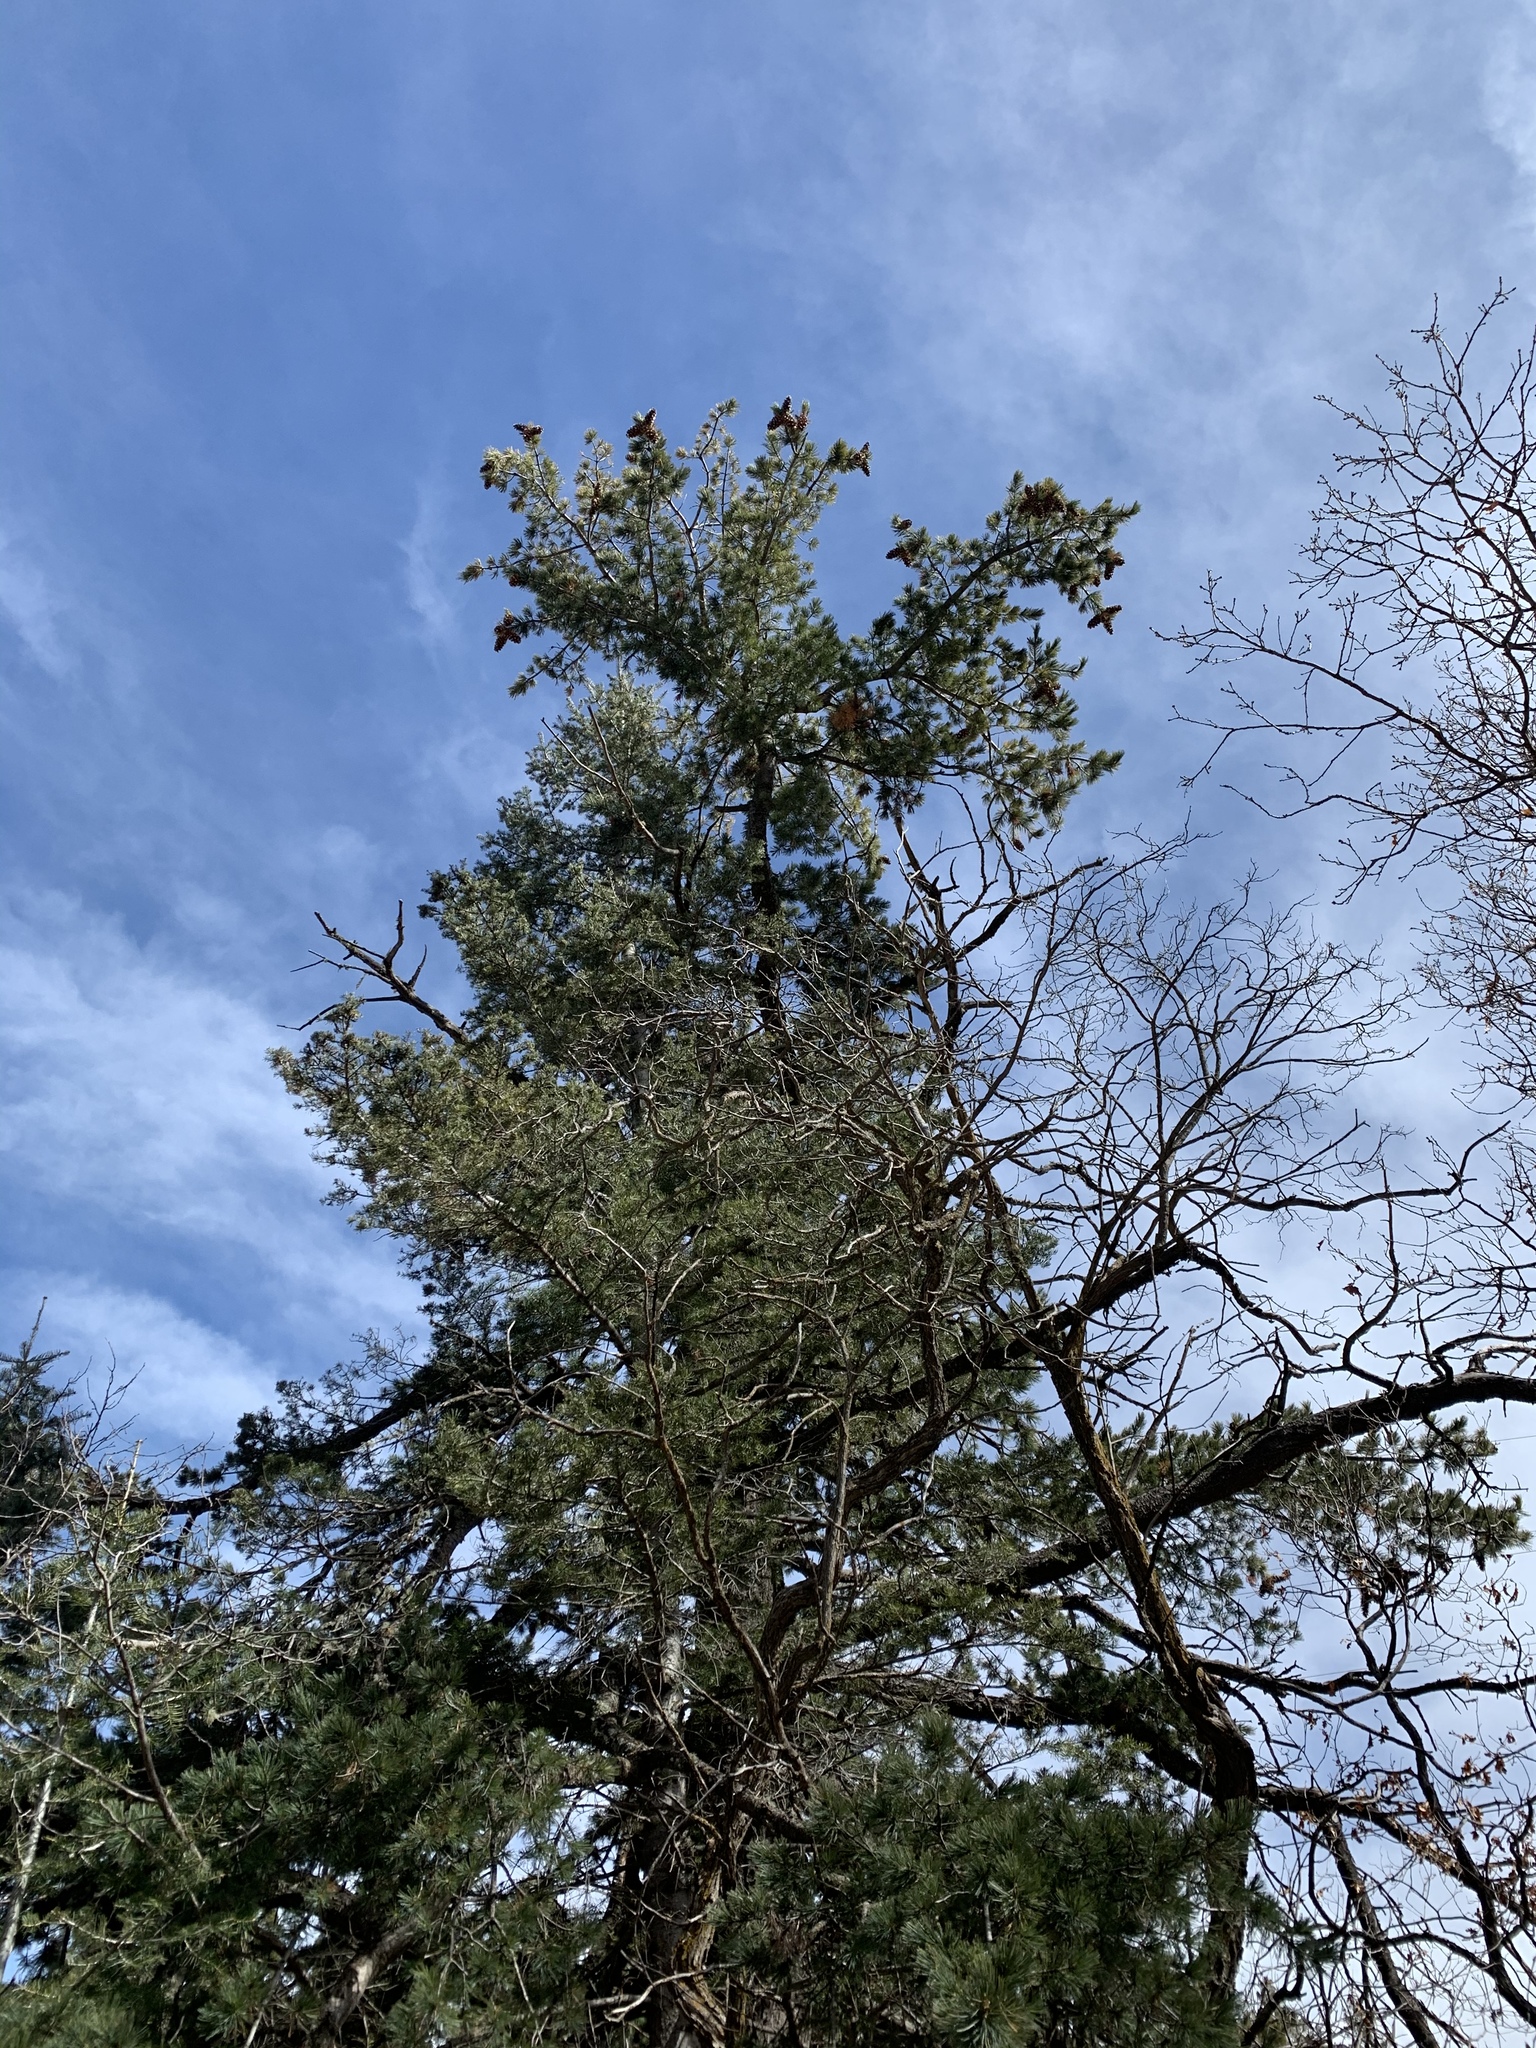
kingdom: Plantae
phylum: Tracheophyta
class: Pinopsida
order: Pinales
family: Pinaceae
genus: Pinus
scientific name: Pinus strobiformis
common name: Southwestern white pine
